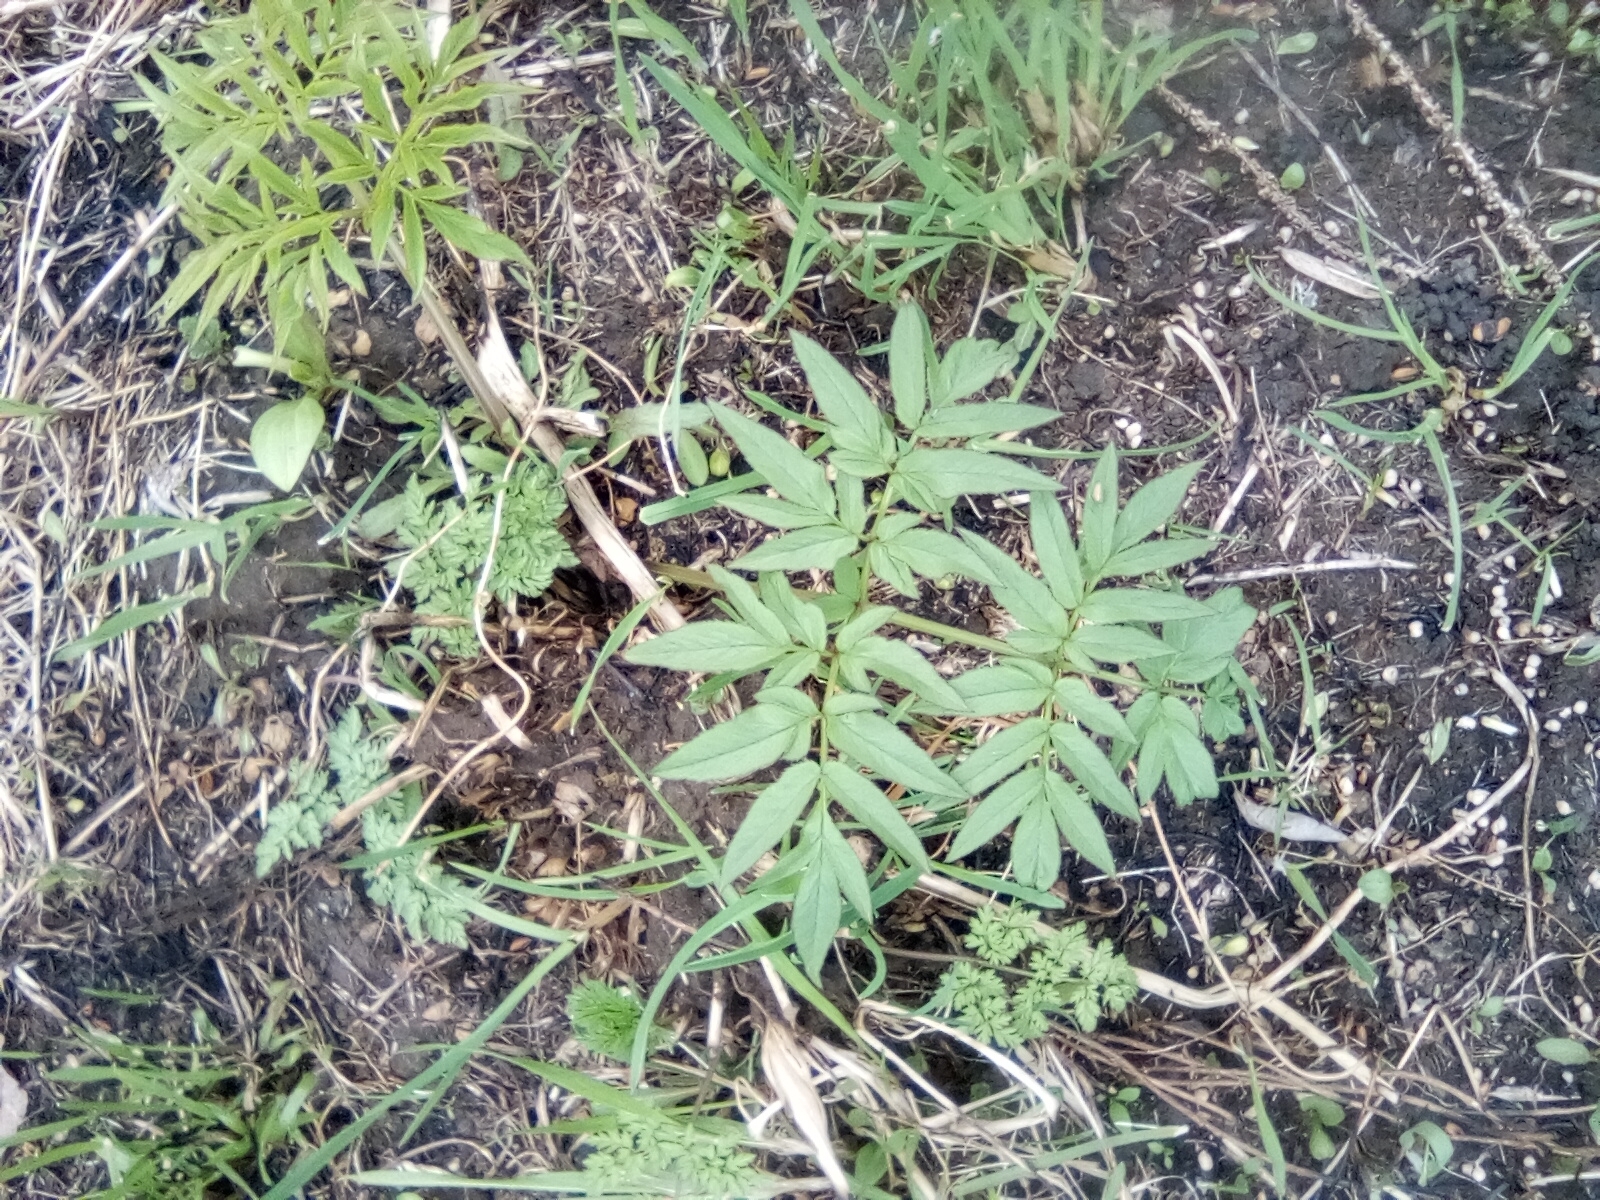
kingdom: Plantae
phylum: Tracheophyta
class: Magnoliopsida
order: Apiales
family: Apiaceae
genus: Angelica
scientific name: Angelica sylvestris
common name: Wild angelica
